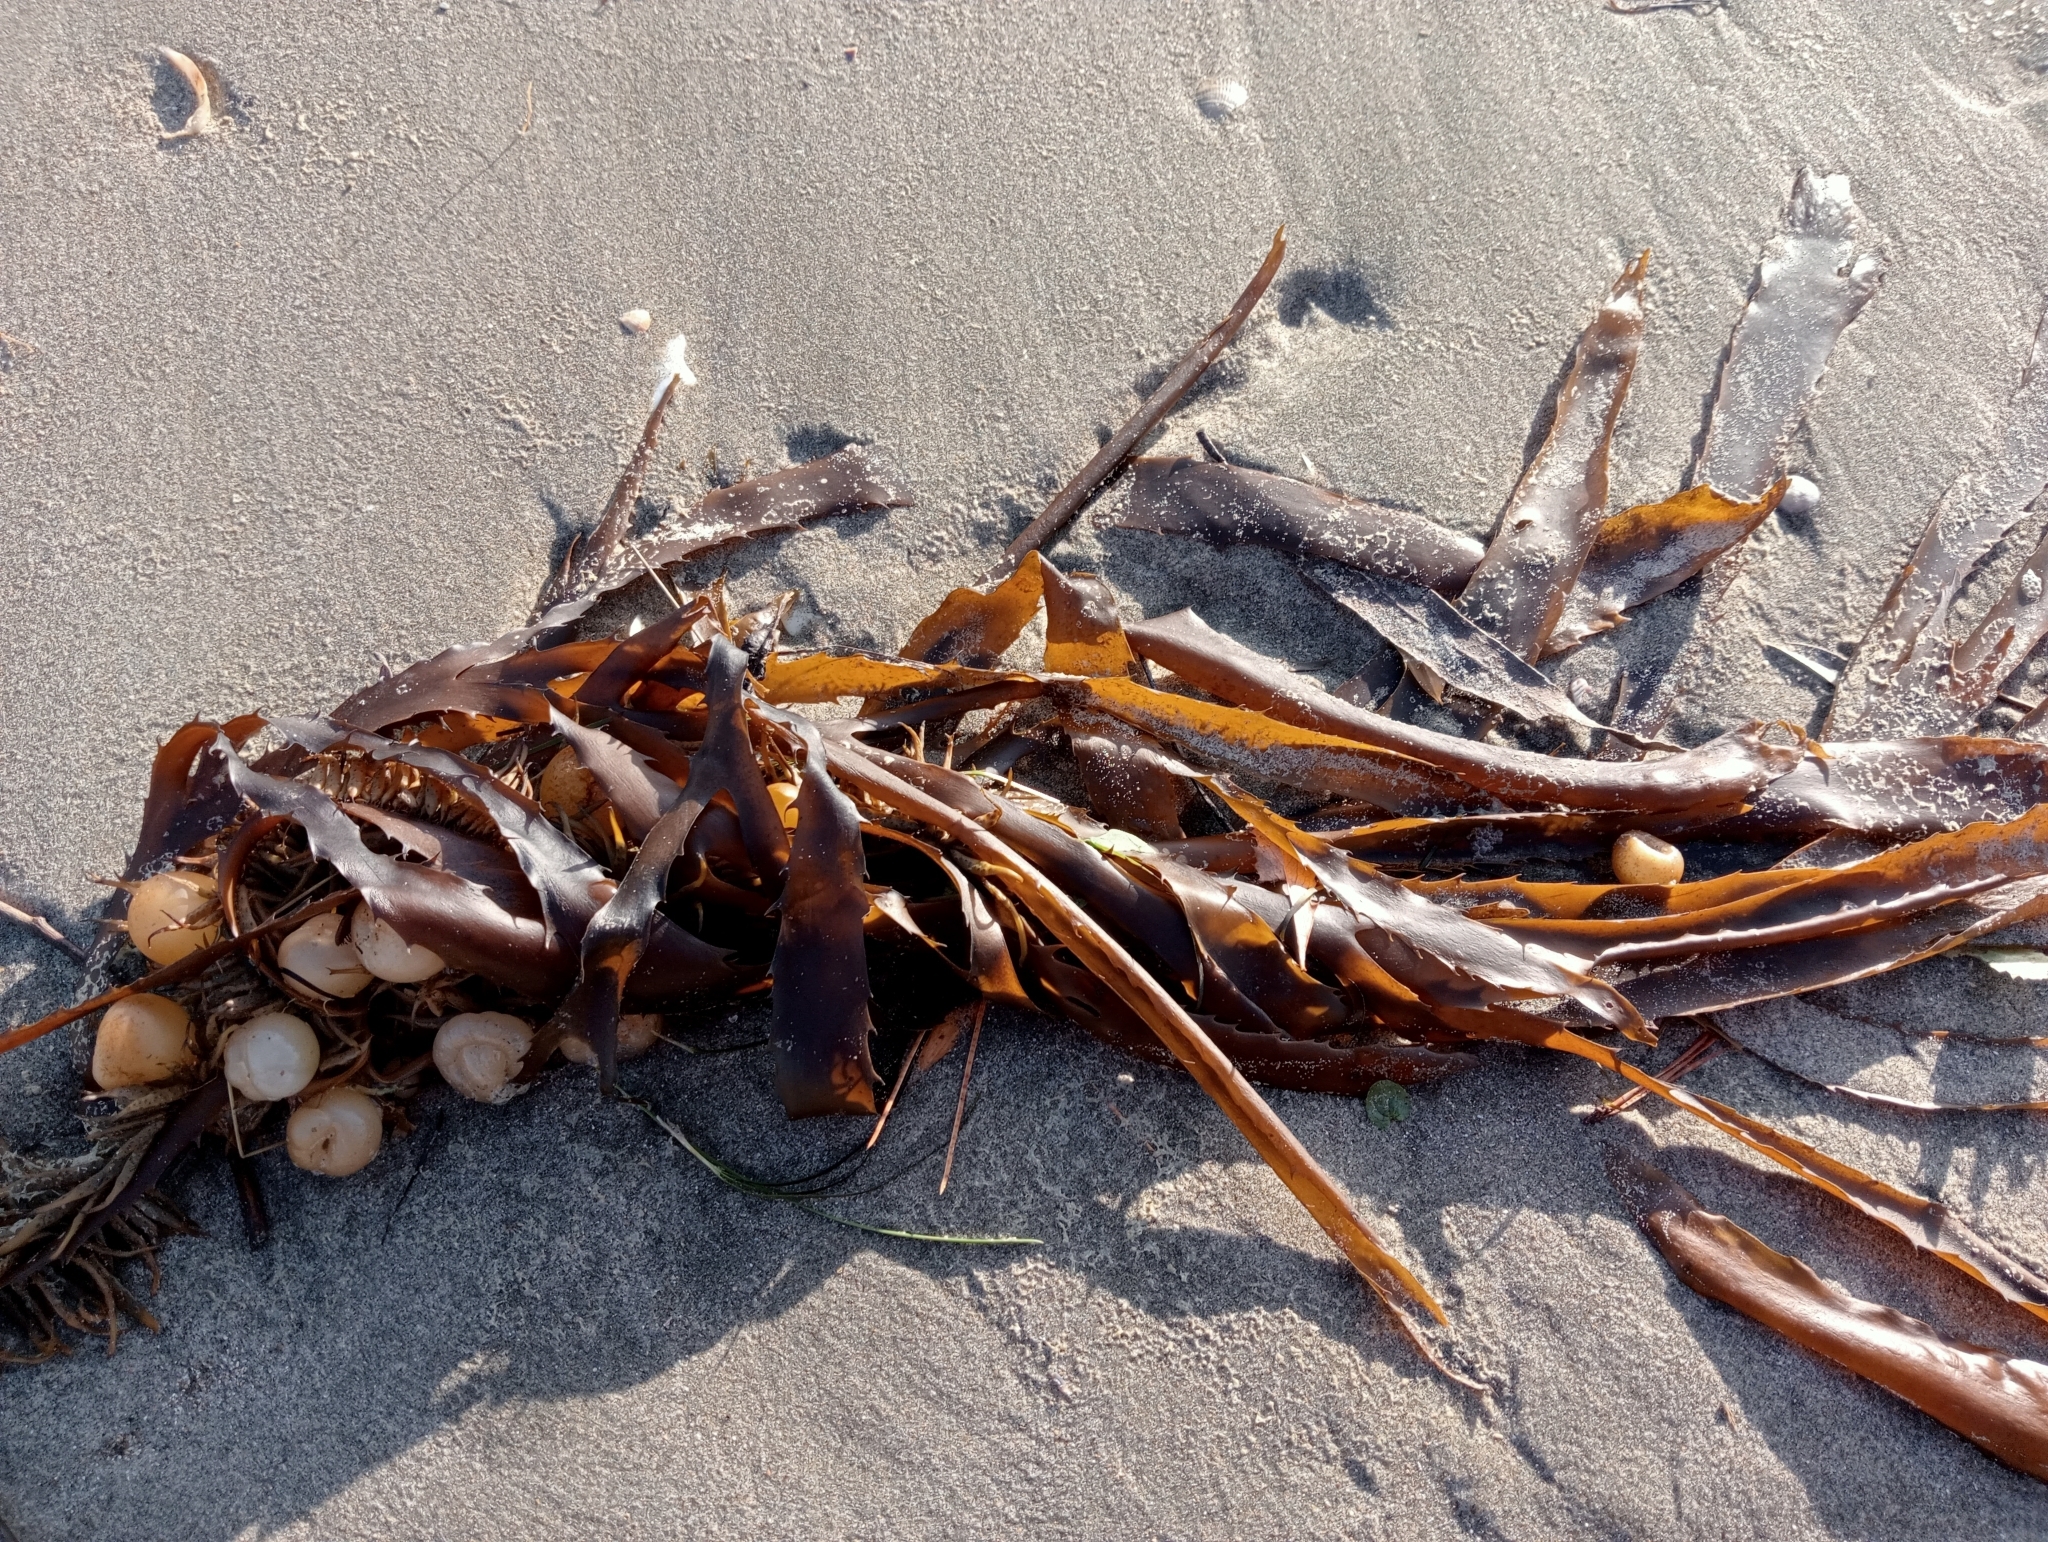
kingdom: Chromista
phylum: Ochrophyta
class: Phaeophyceae
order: Fucales
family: Seirococcaceae
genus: Marginariella
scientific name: Marginariella urvilliana
